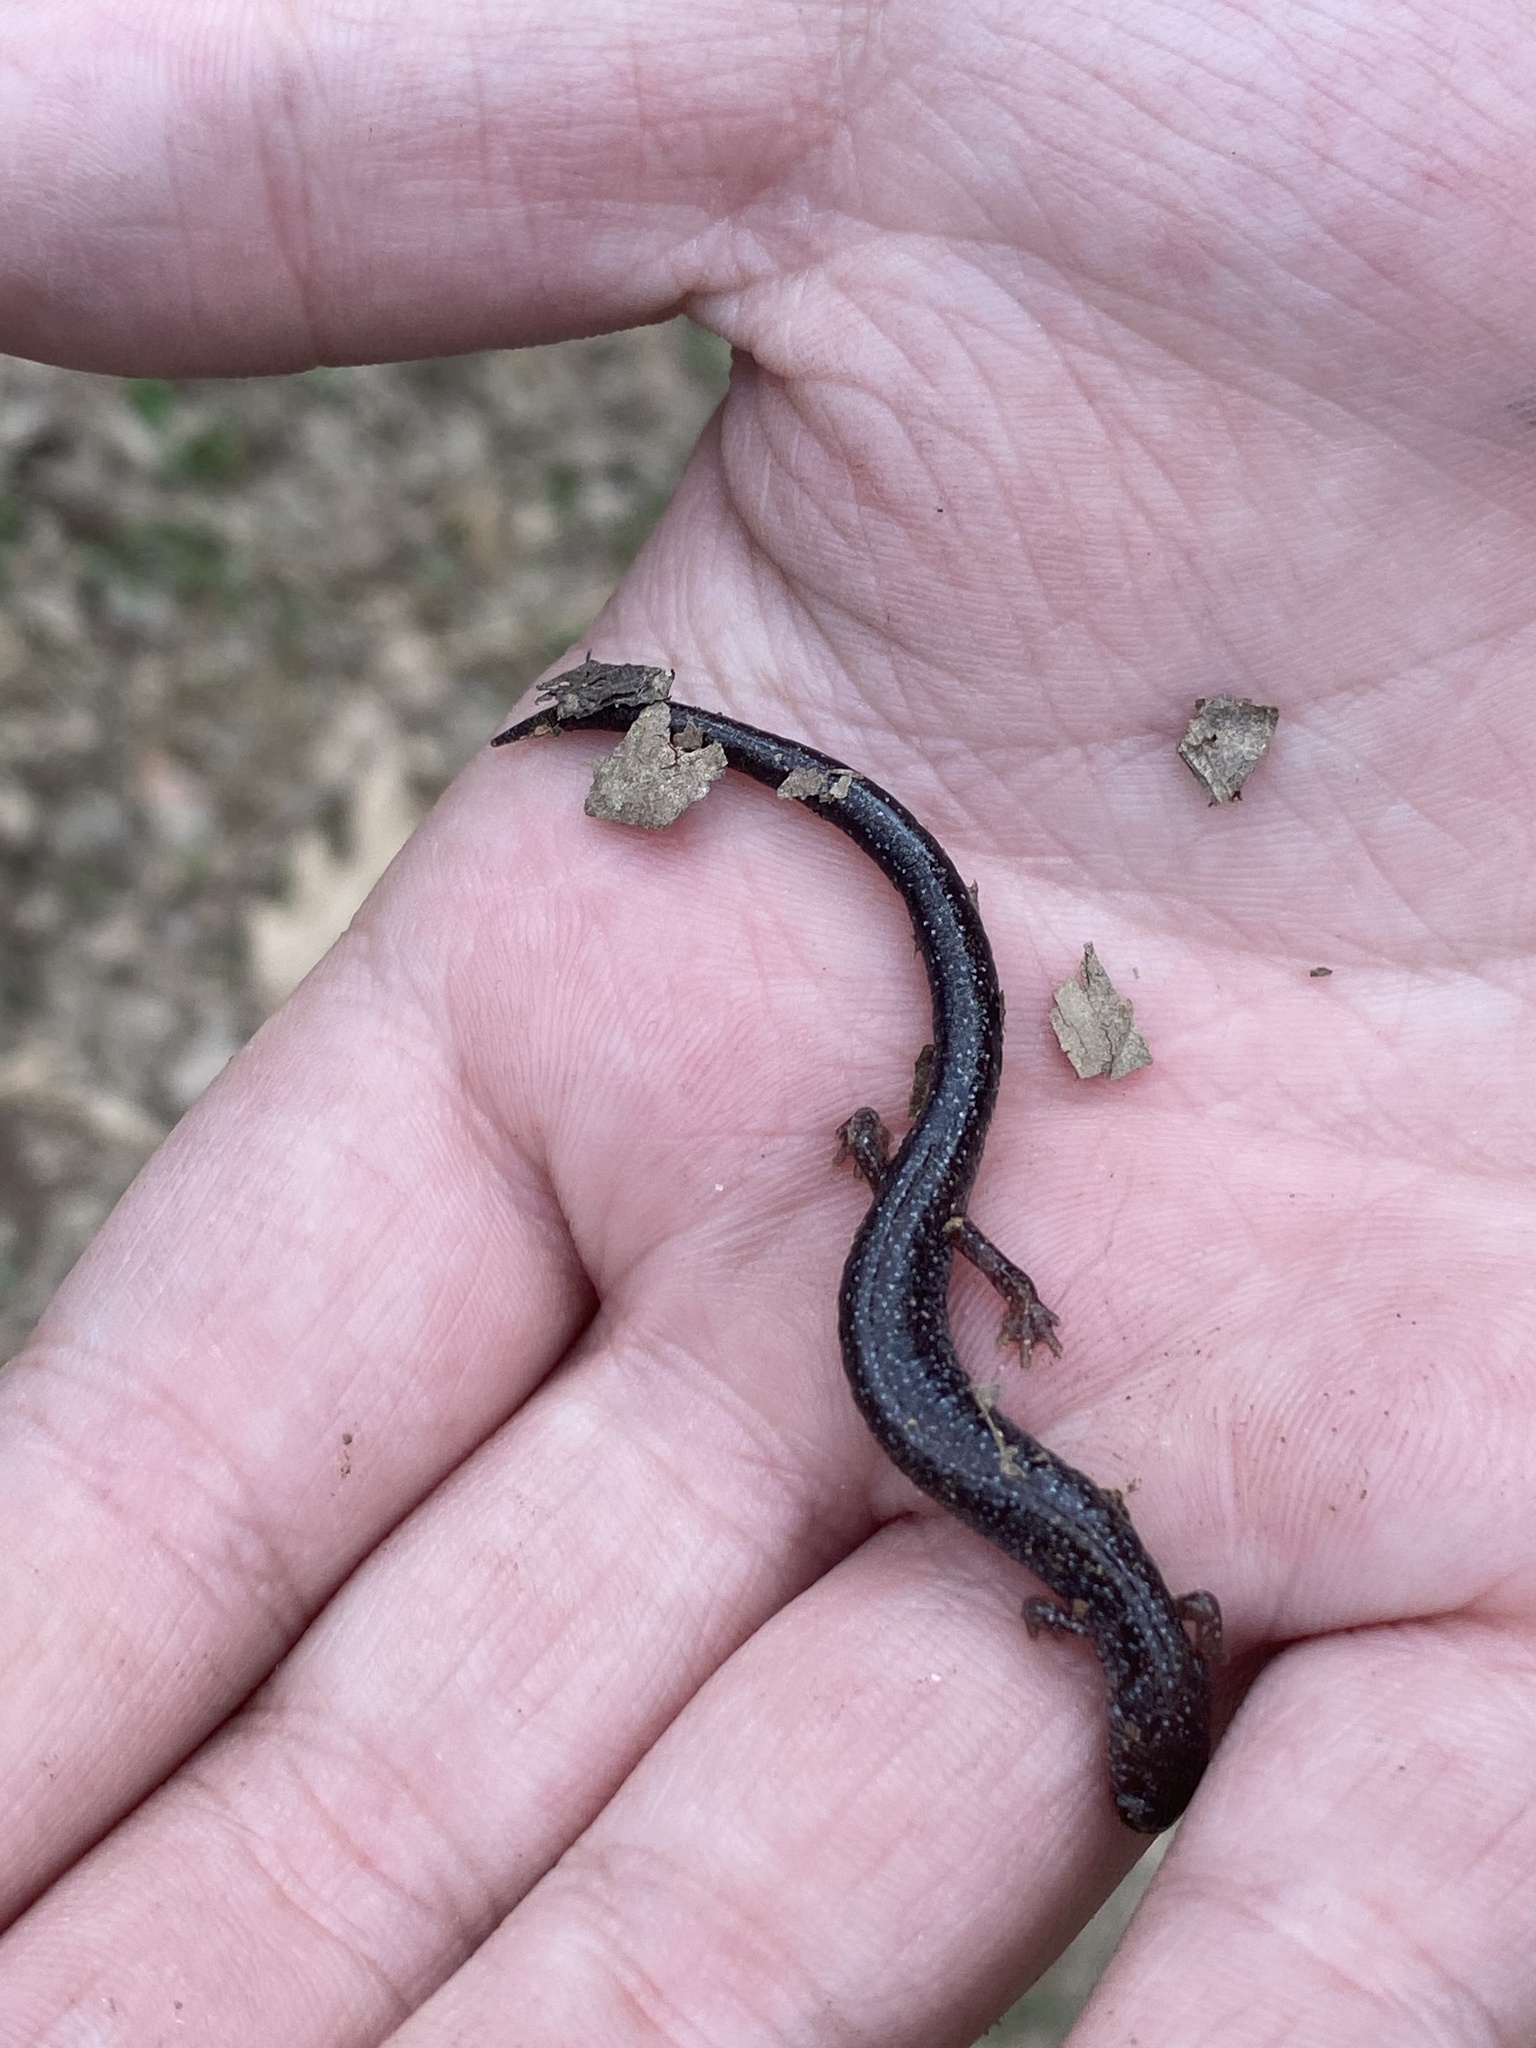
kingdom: Animalia
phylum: Chordata
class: Amphibia
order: Caudata
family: Plethodontidae
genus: Plethodon
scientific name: Plethodon cinereus
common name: Redback salamander
